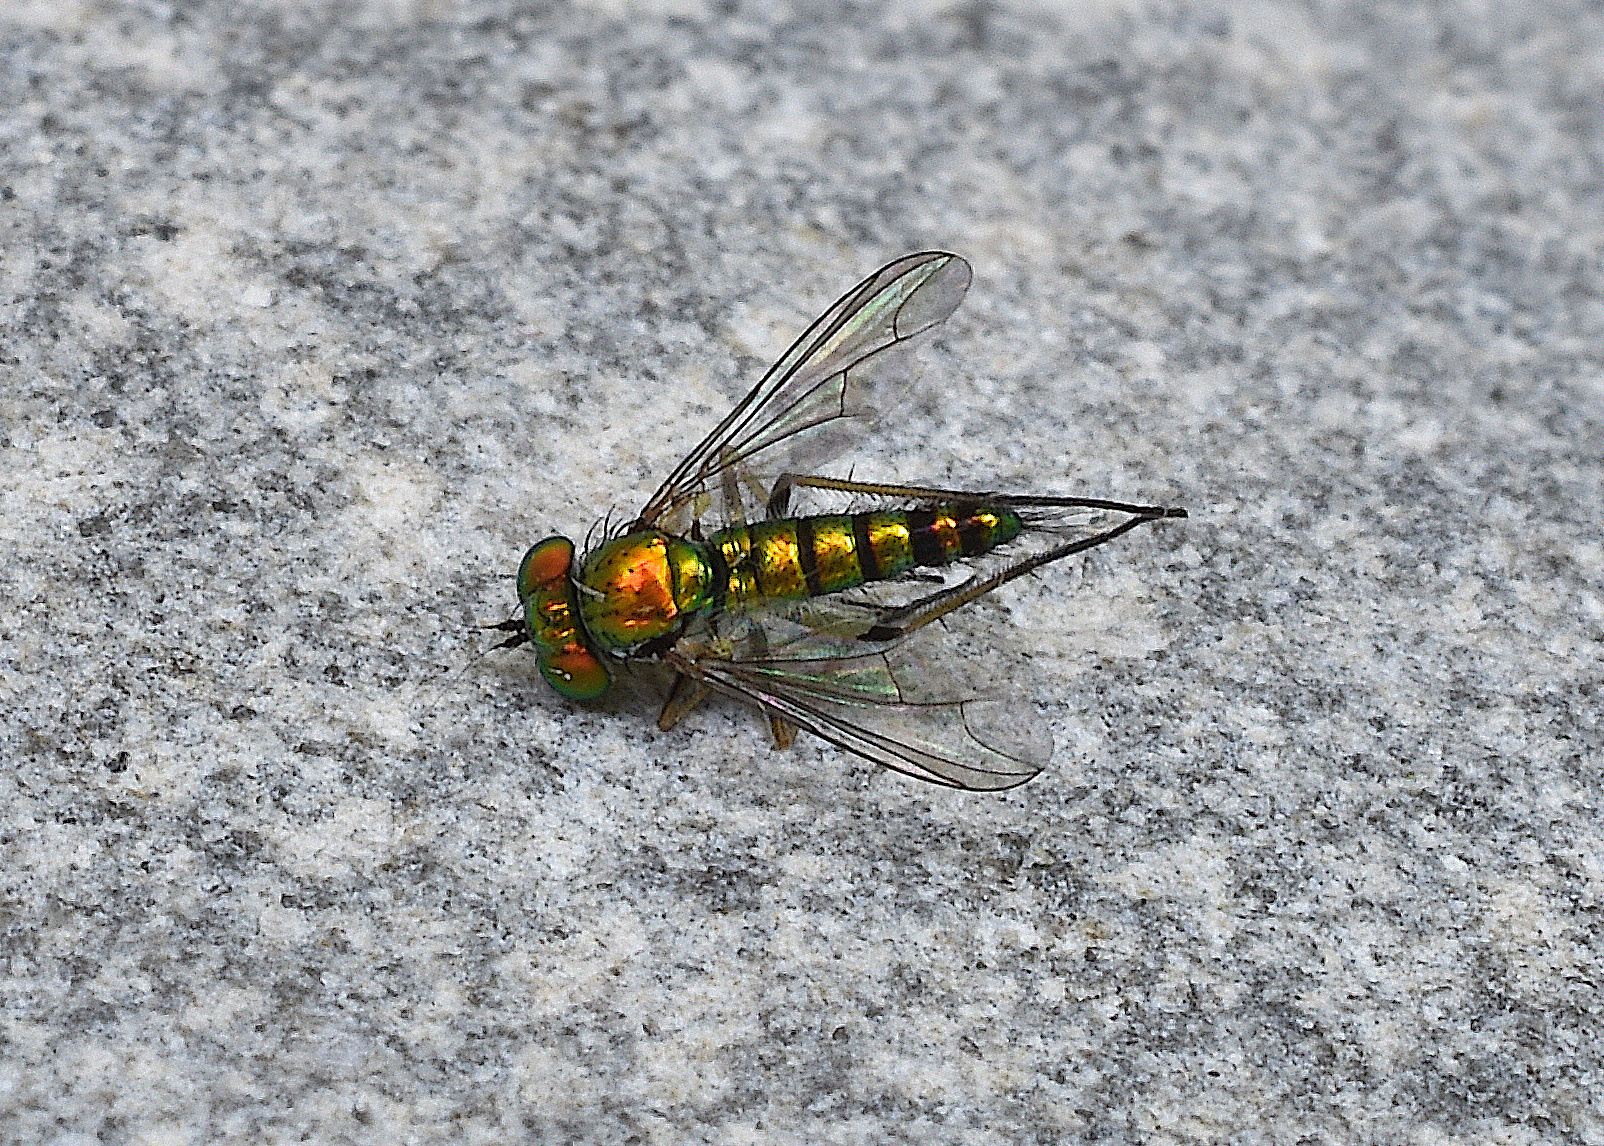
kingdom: Animalia
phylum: Arthropoda
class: Insecta
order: Diptera
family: Dolichopodidae
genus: Condylostylus
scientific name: Condylostylus caudatus
